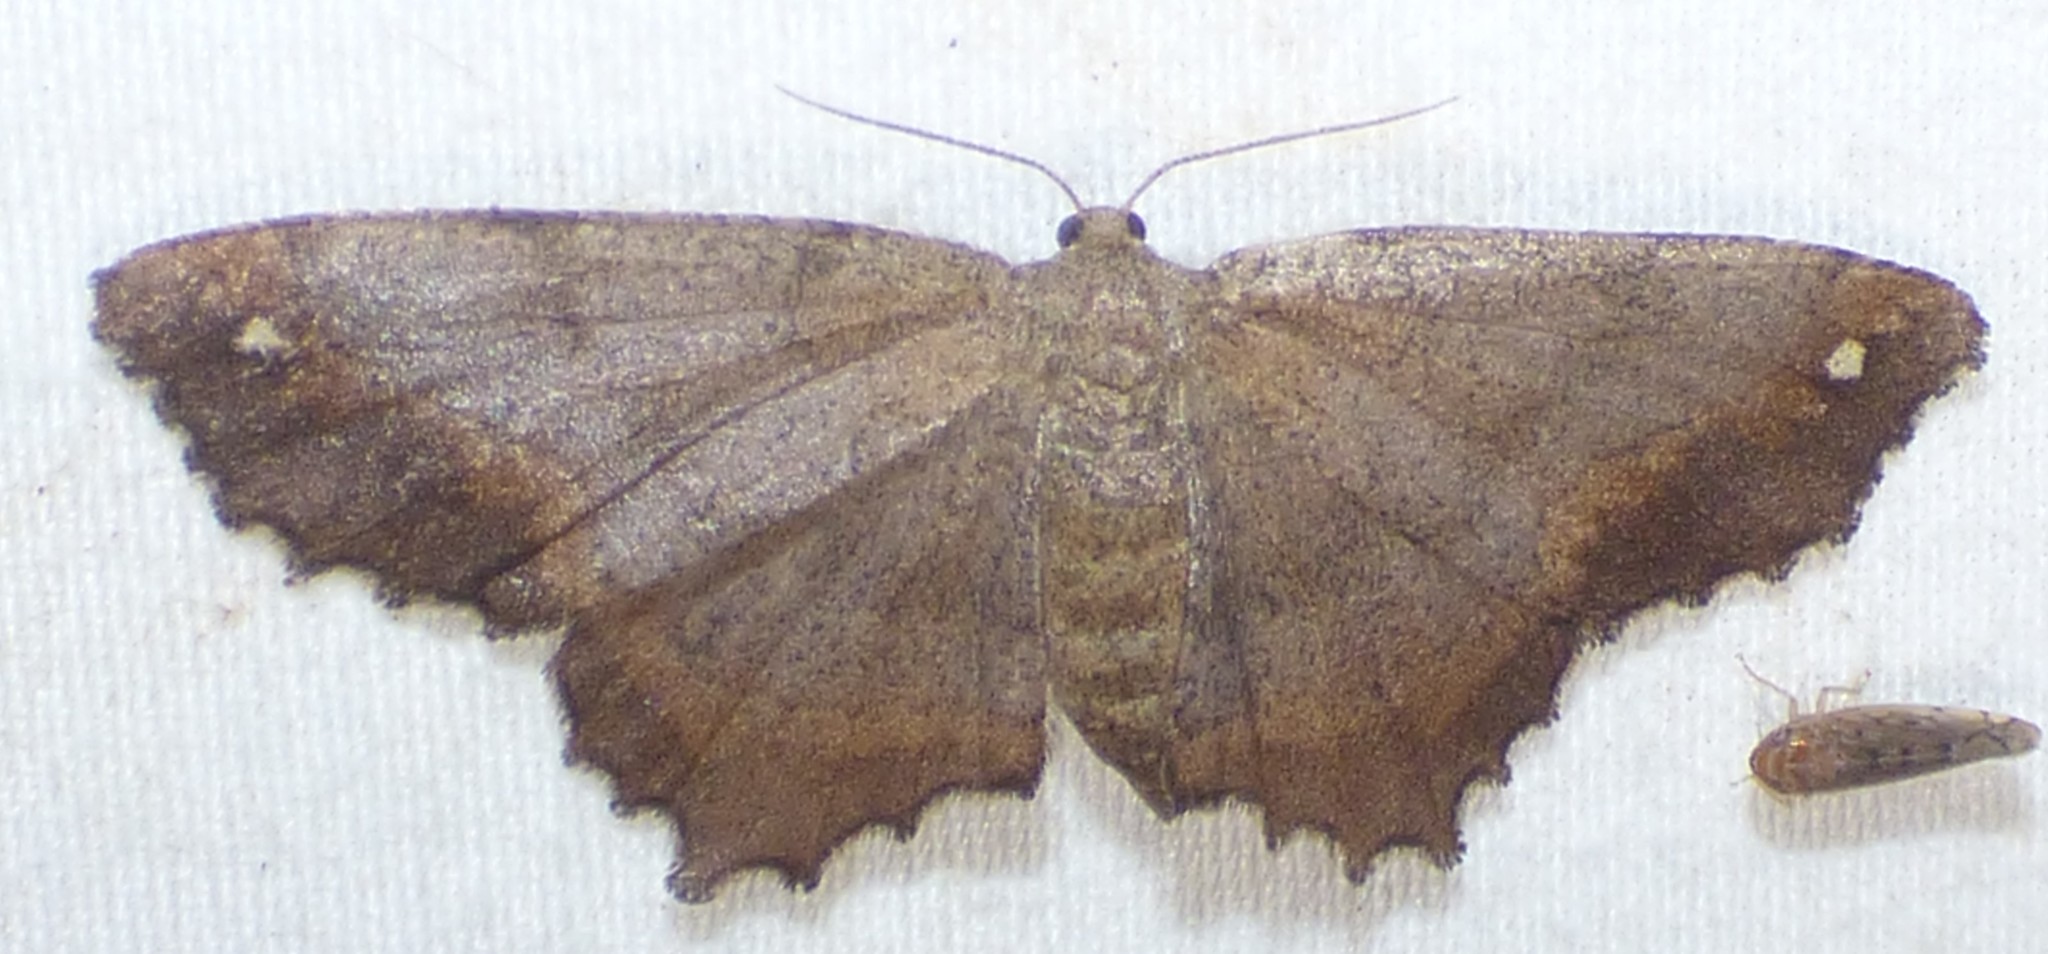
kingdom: Animalia
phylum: Arthropoda
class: Insecta
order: Lepidoptera
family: Geometridae
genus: Hypagyrtis
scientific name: Hypagyrtis esther
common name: Esther moth
